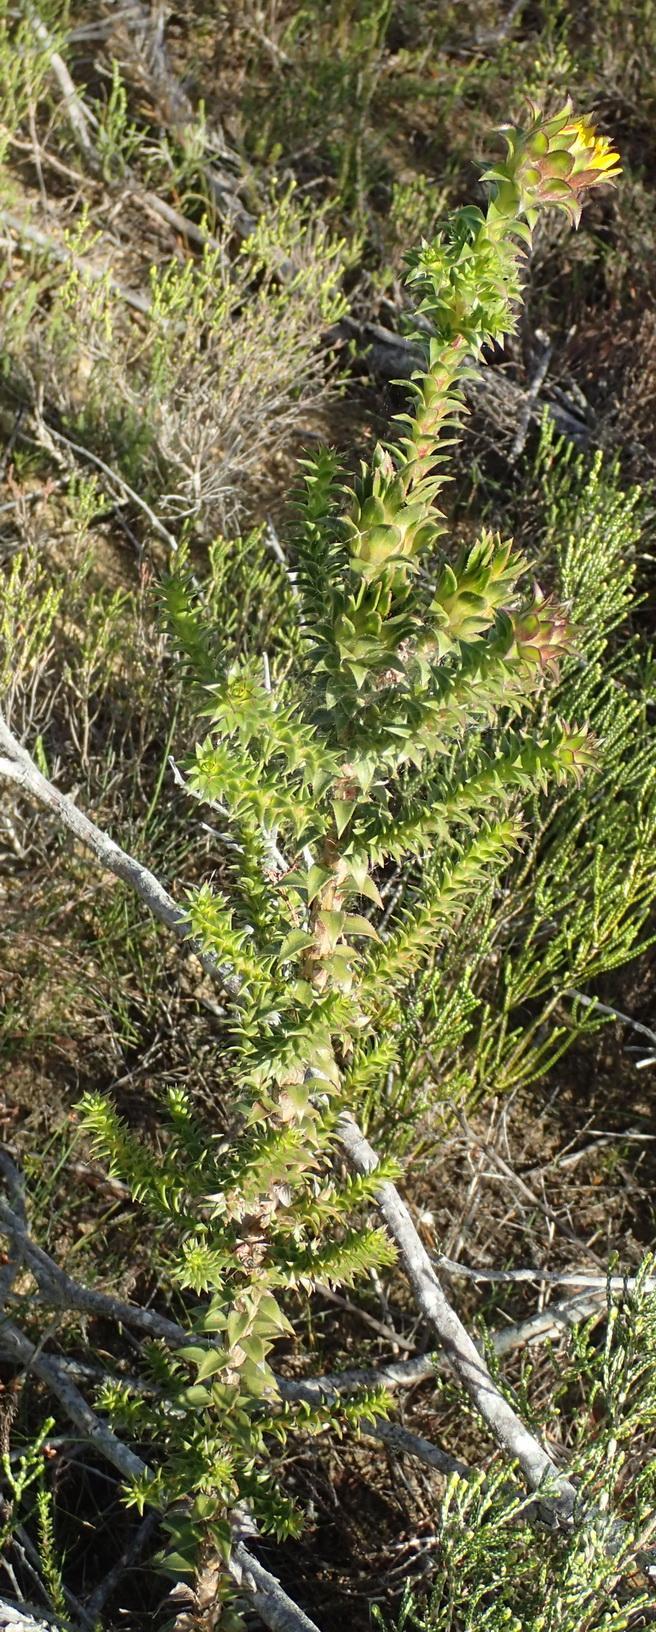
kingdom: Plantae
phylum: Tracheophyta
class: Magnoliopsida
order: Asterales
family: Asteraceae
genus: Oedera
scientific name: Oedera imbricata
